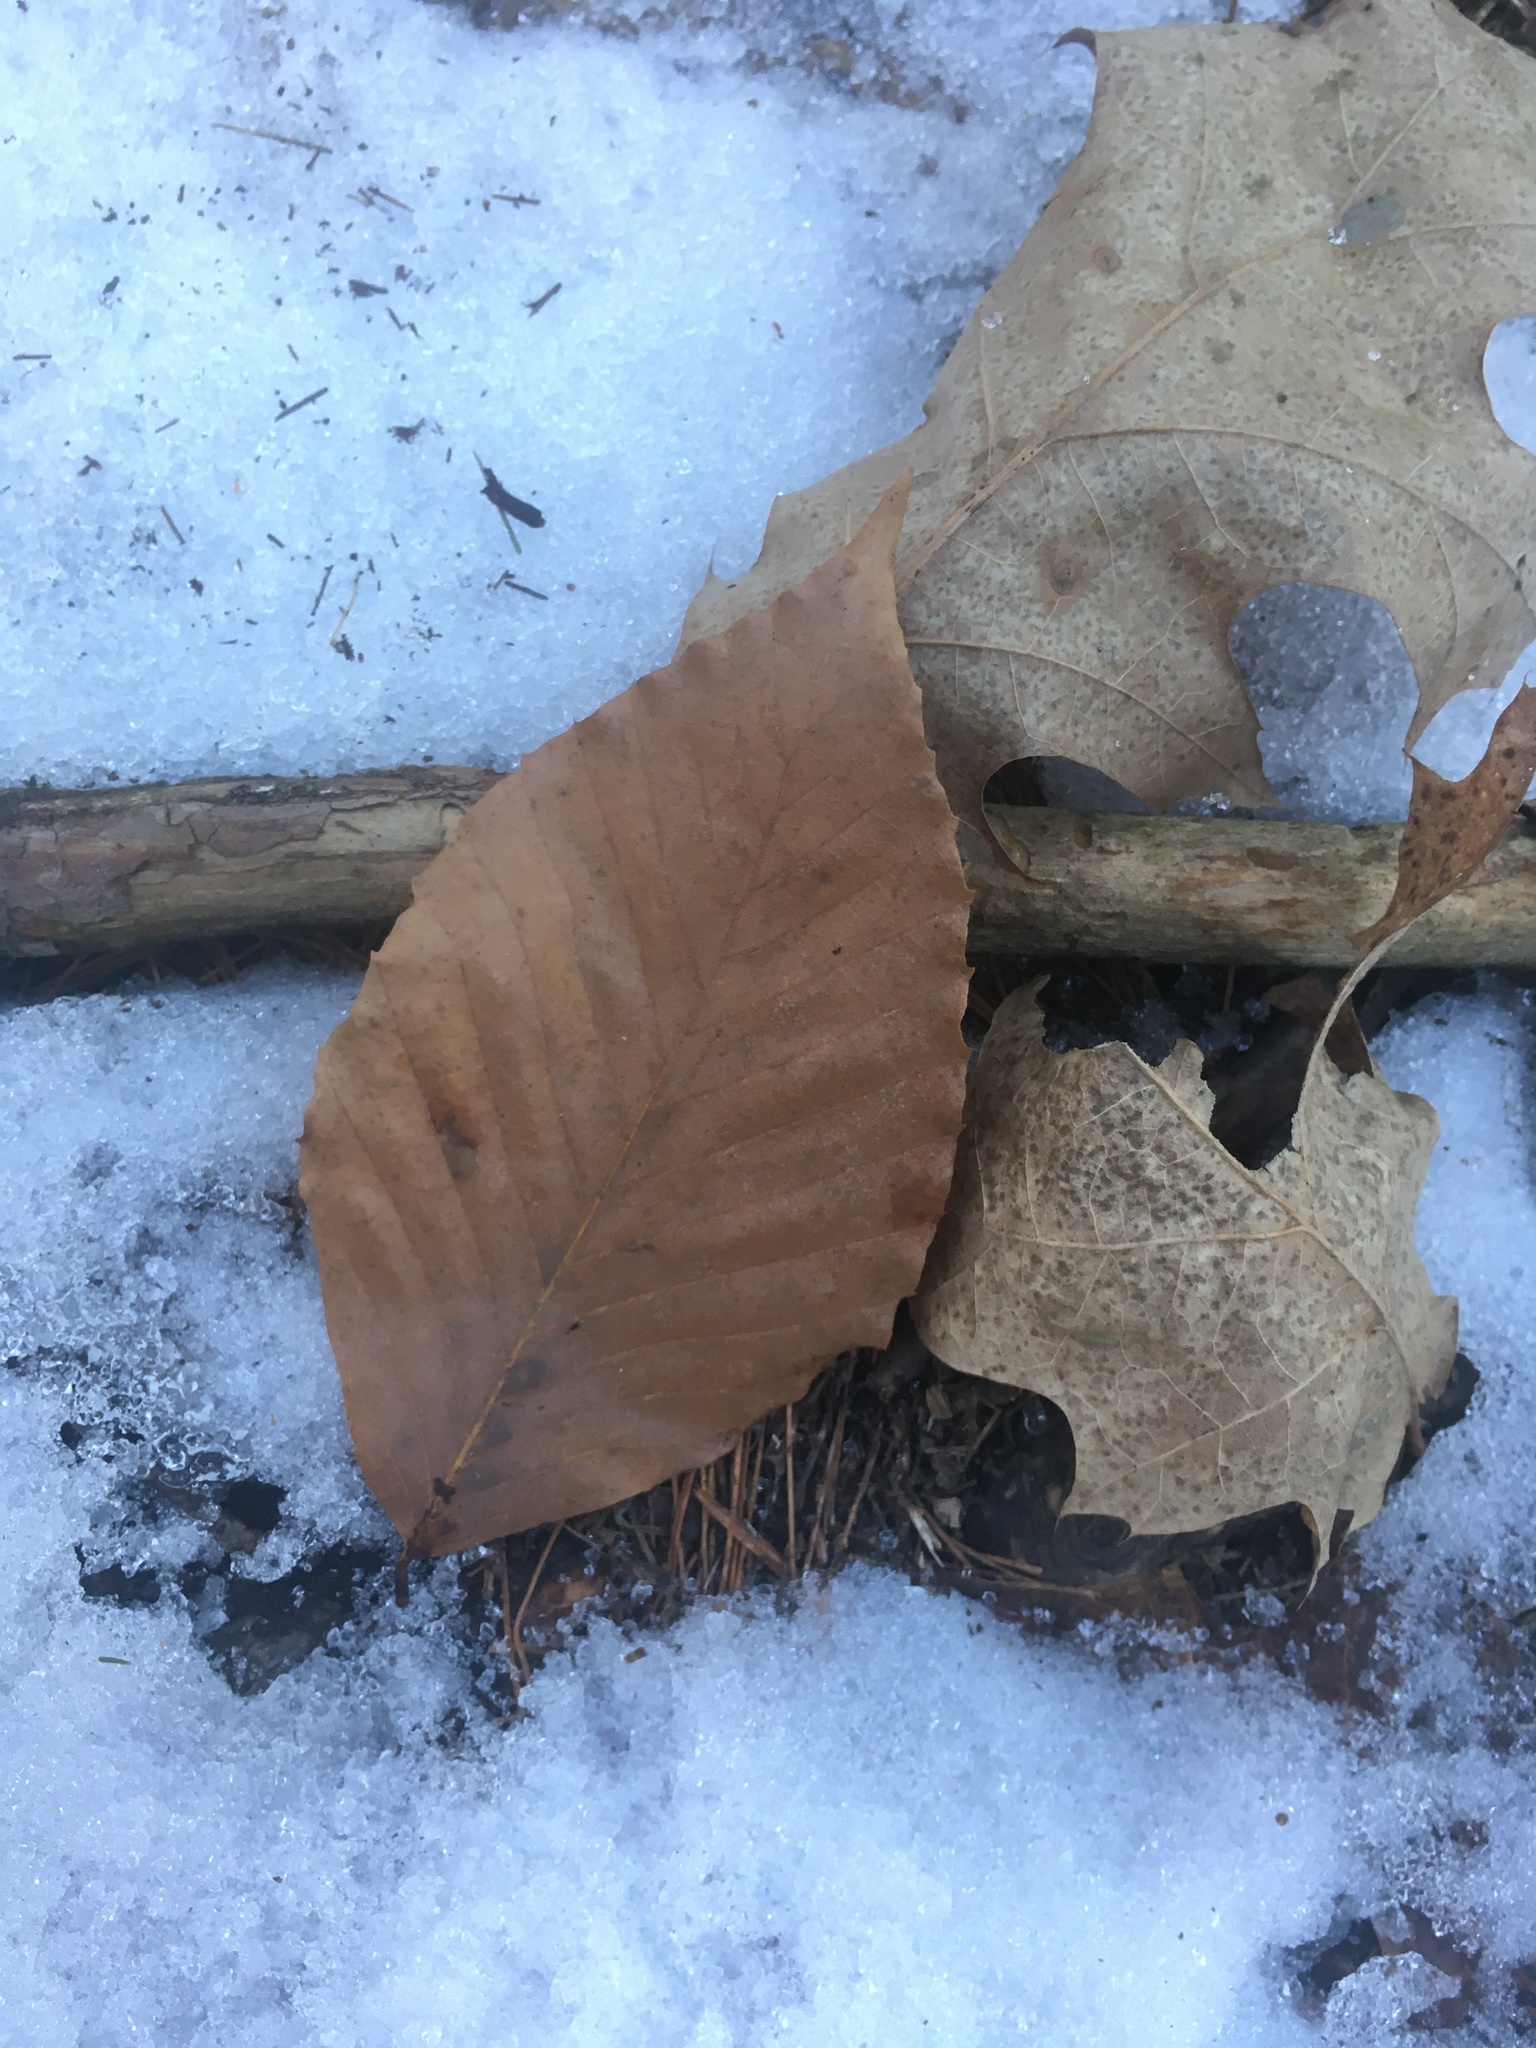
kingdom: Plantae
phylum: Tracheophyta
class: Magnoliopsida
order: Fagales
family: Fagaceae
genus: Fagus
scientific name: Fagus grandifolia
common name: American beech
